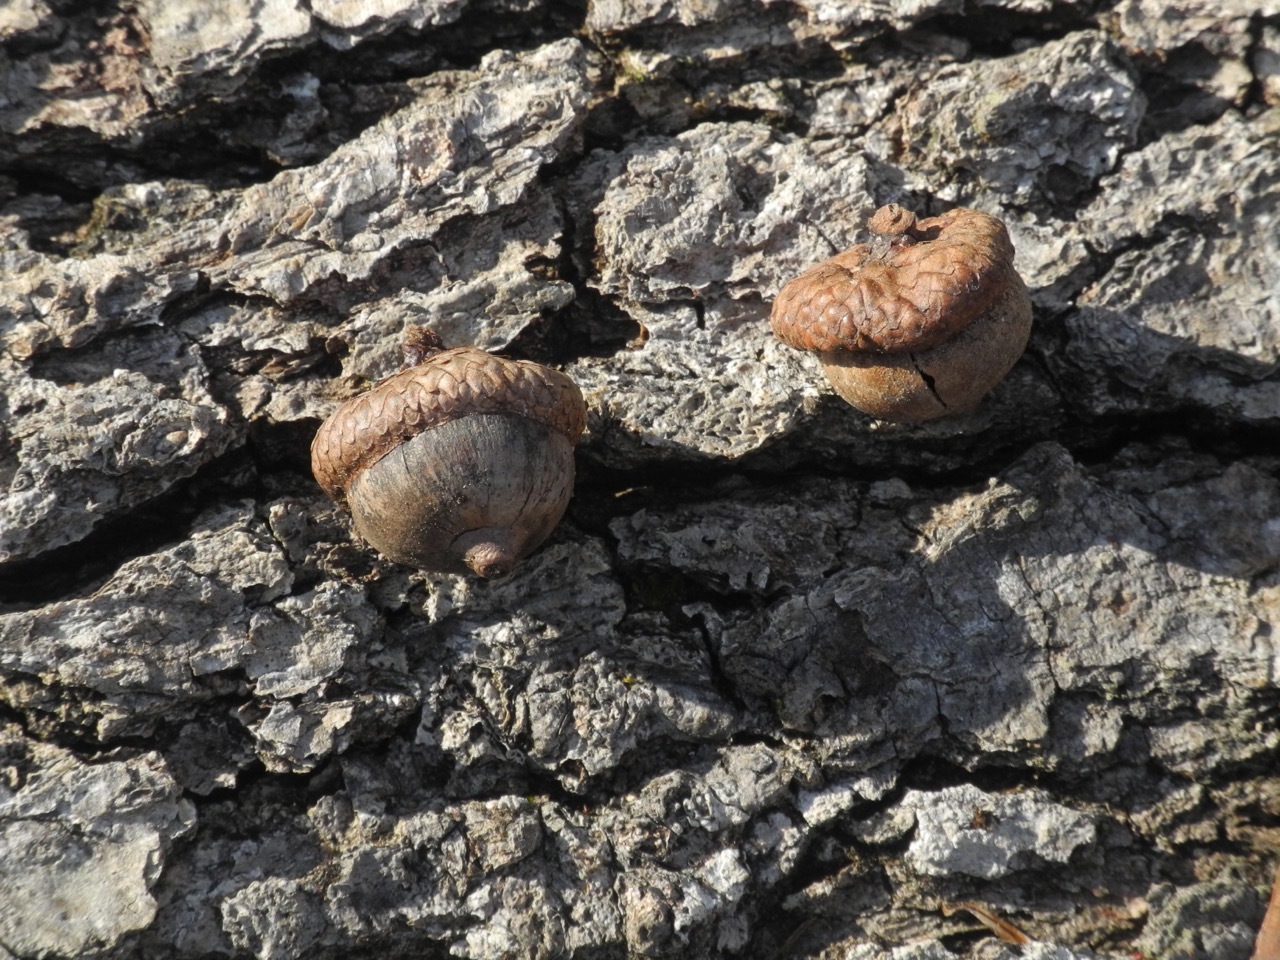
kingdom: Plantae
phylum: Tracheophyta
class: Magnoliopsida
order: Fagales
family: Fagaceae
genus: Quercus
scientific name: Quercus rubra
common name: Red oak
